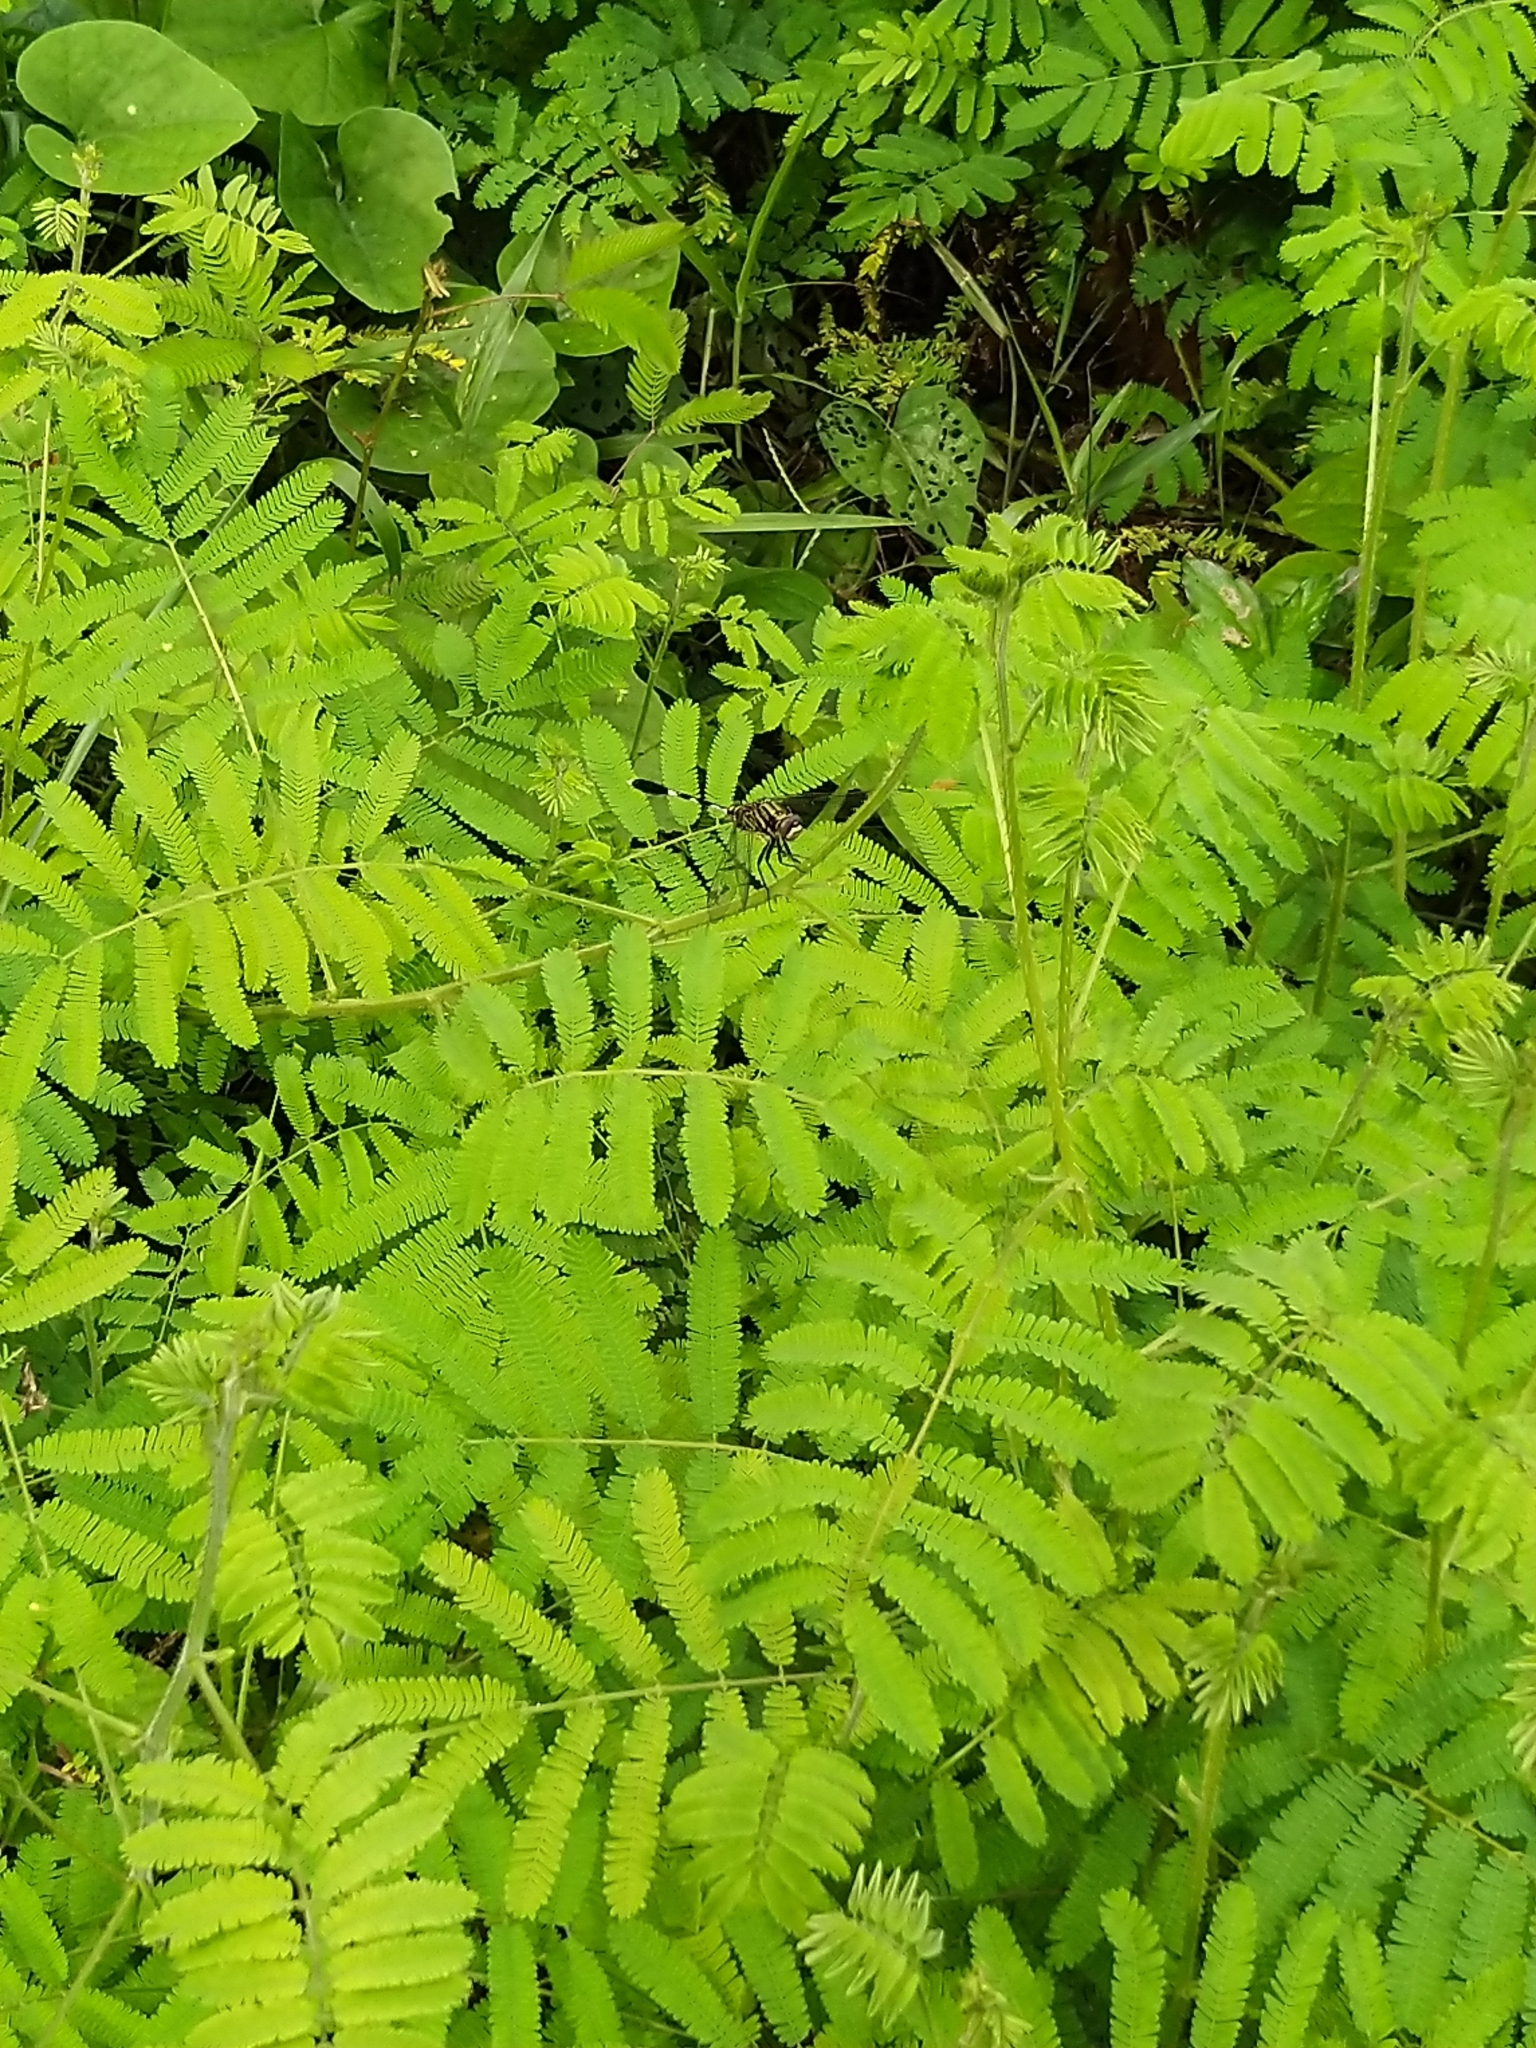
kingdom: Animalia
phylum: Arthropoda
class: Insecta
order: Odonata
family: Libellulidae
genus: Orthetrum
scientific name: Orthetrum sabina
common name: Slender skimmer
